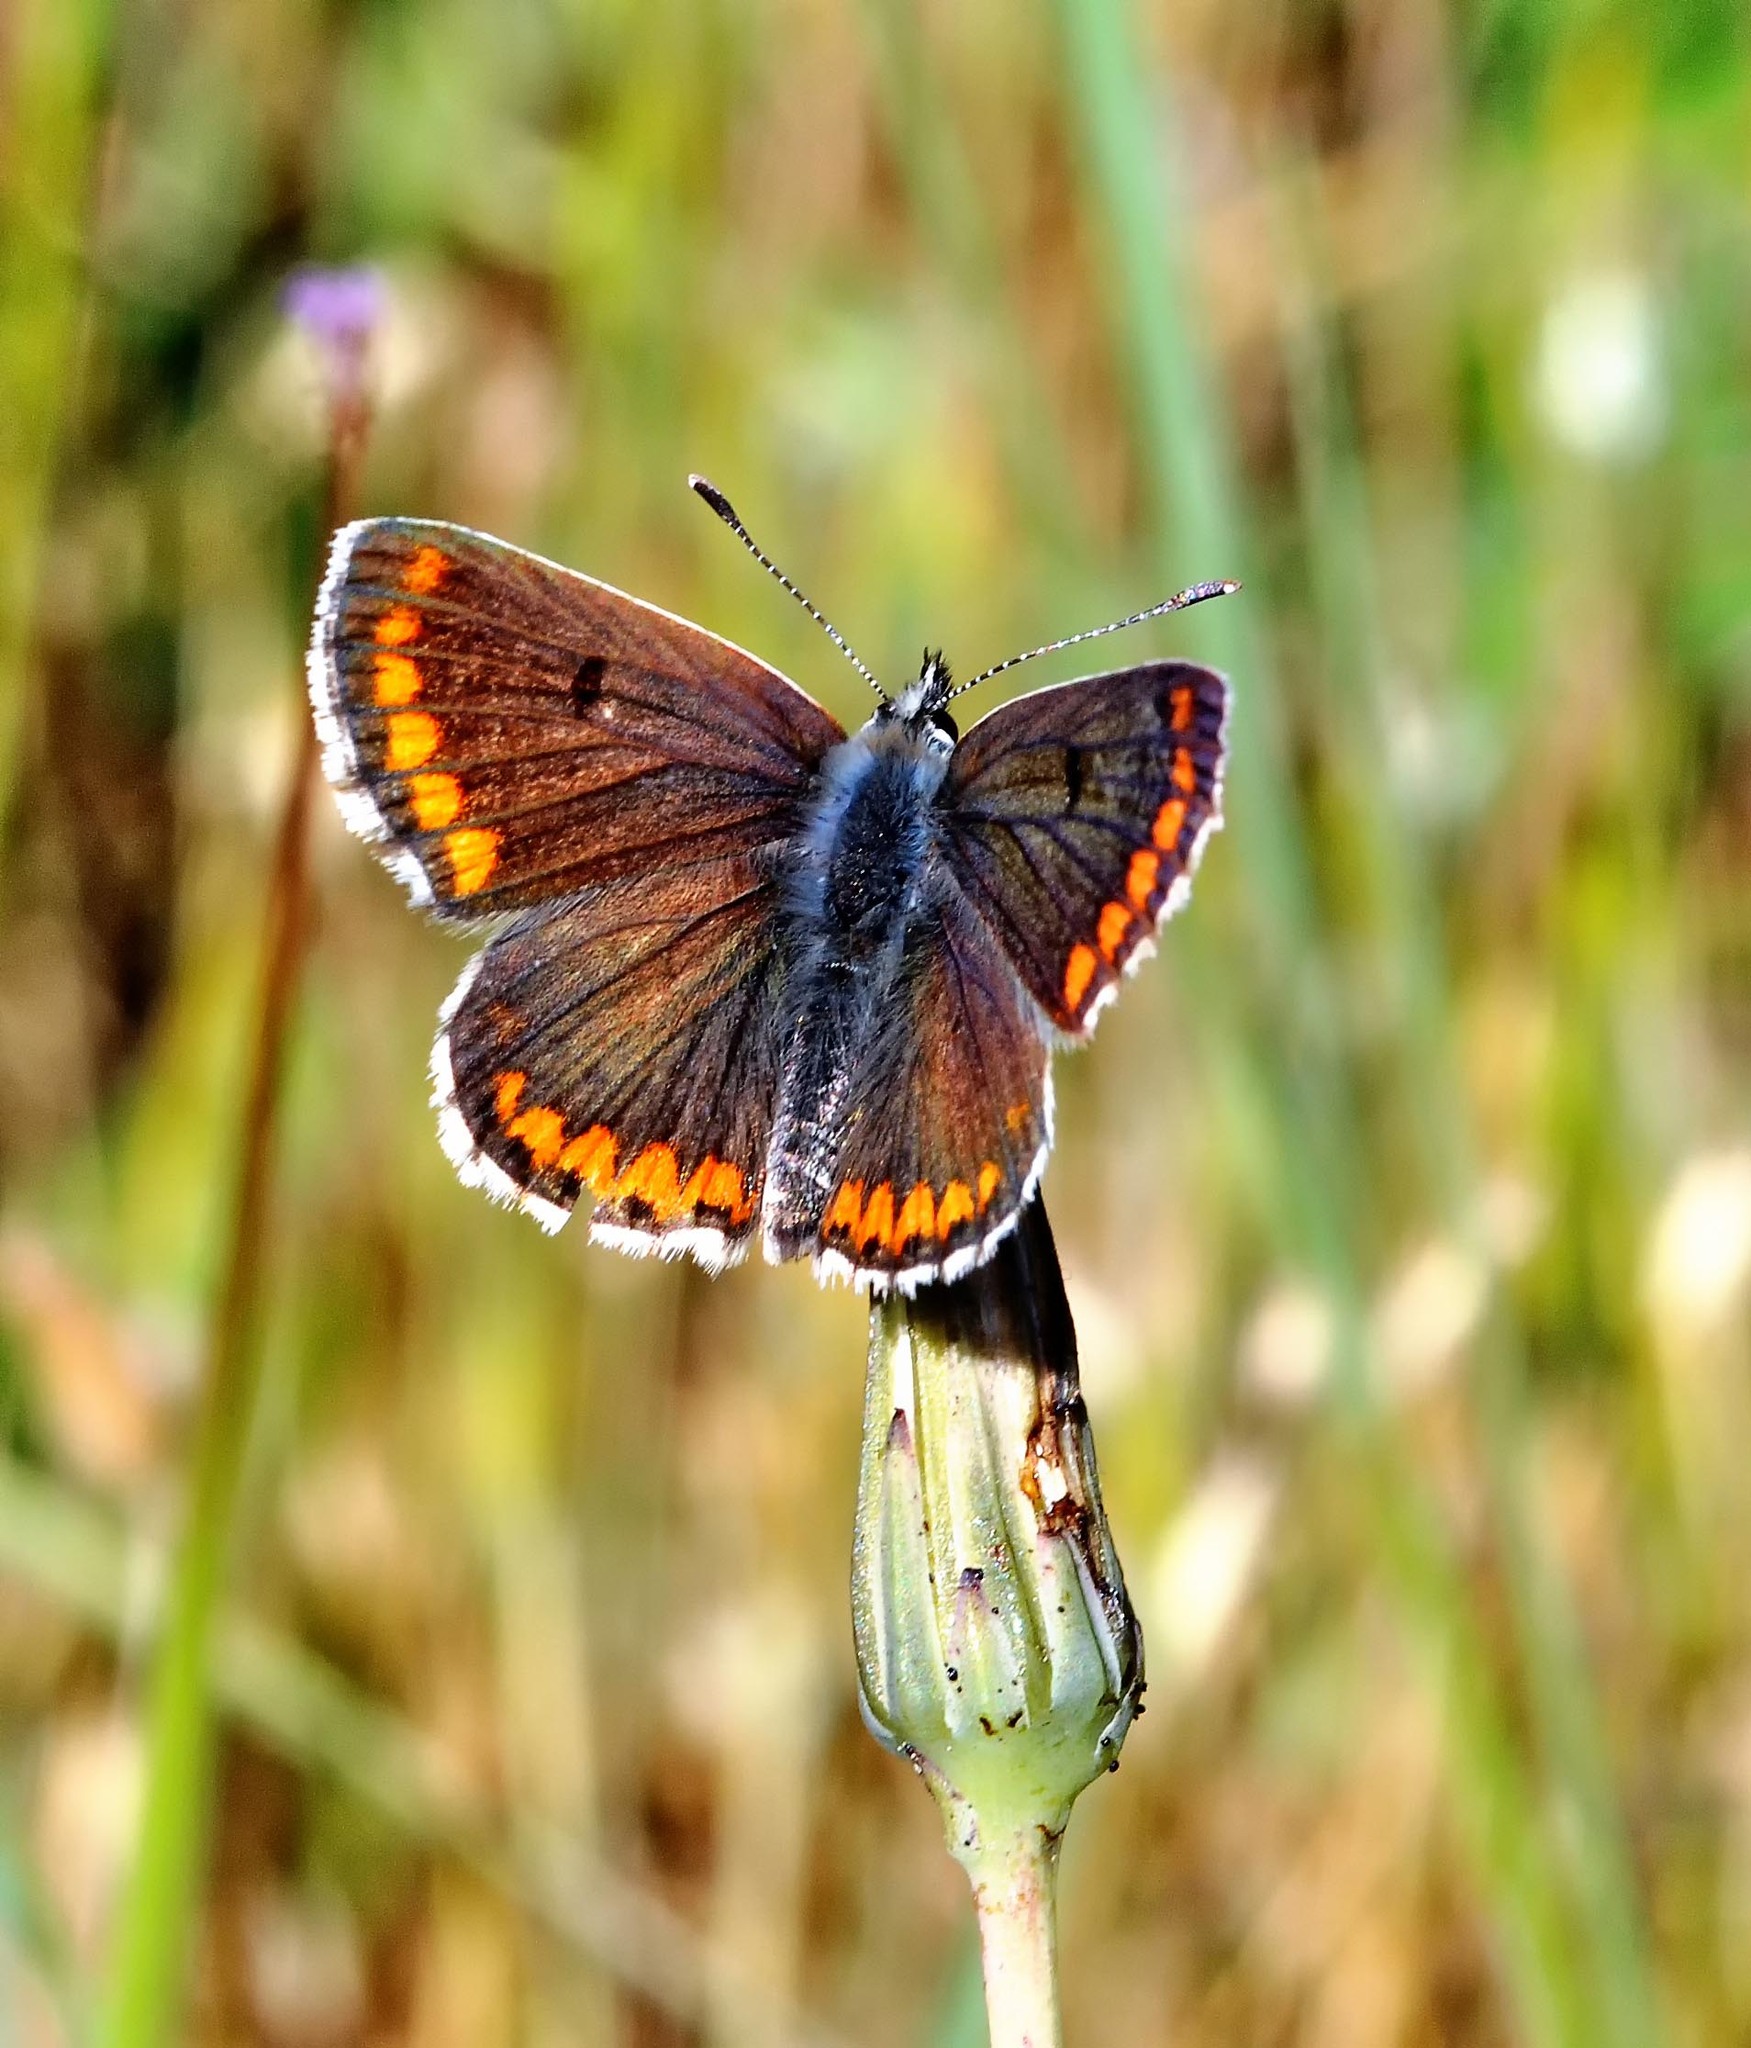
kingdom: Animalia
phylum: Arthropoda
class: Insecta
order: Lepidoptera
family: Lycaenidae
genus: Aricia
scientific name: Aricia cramera
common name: Eschscholtz´s brown  argus
